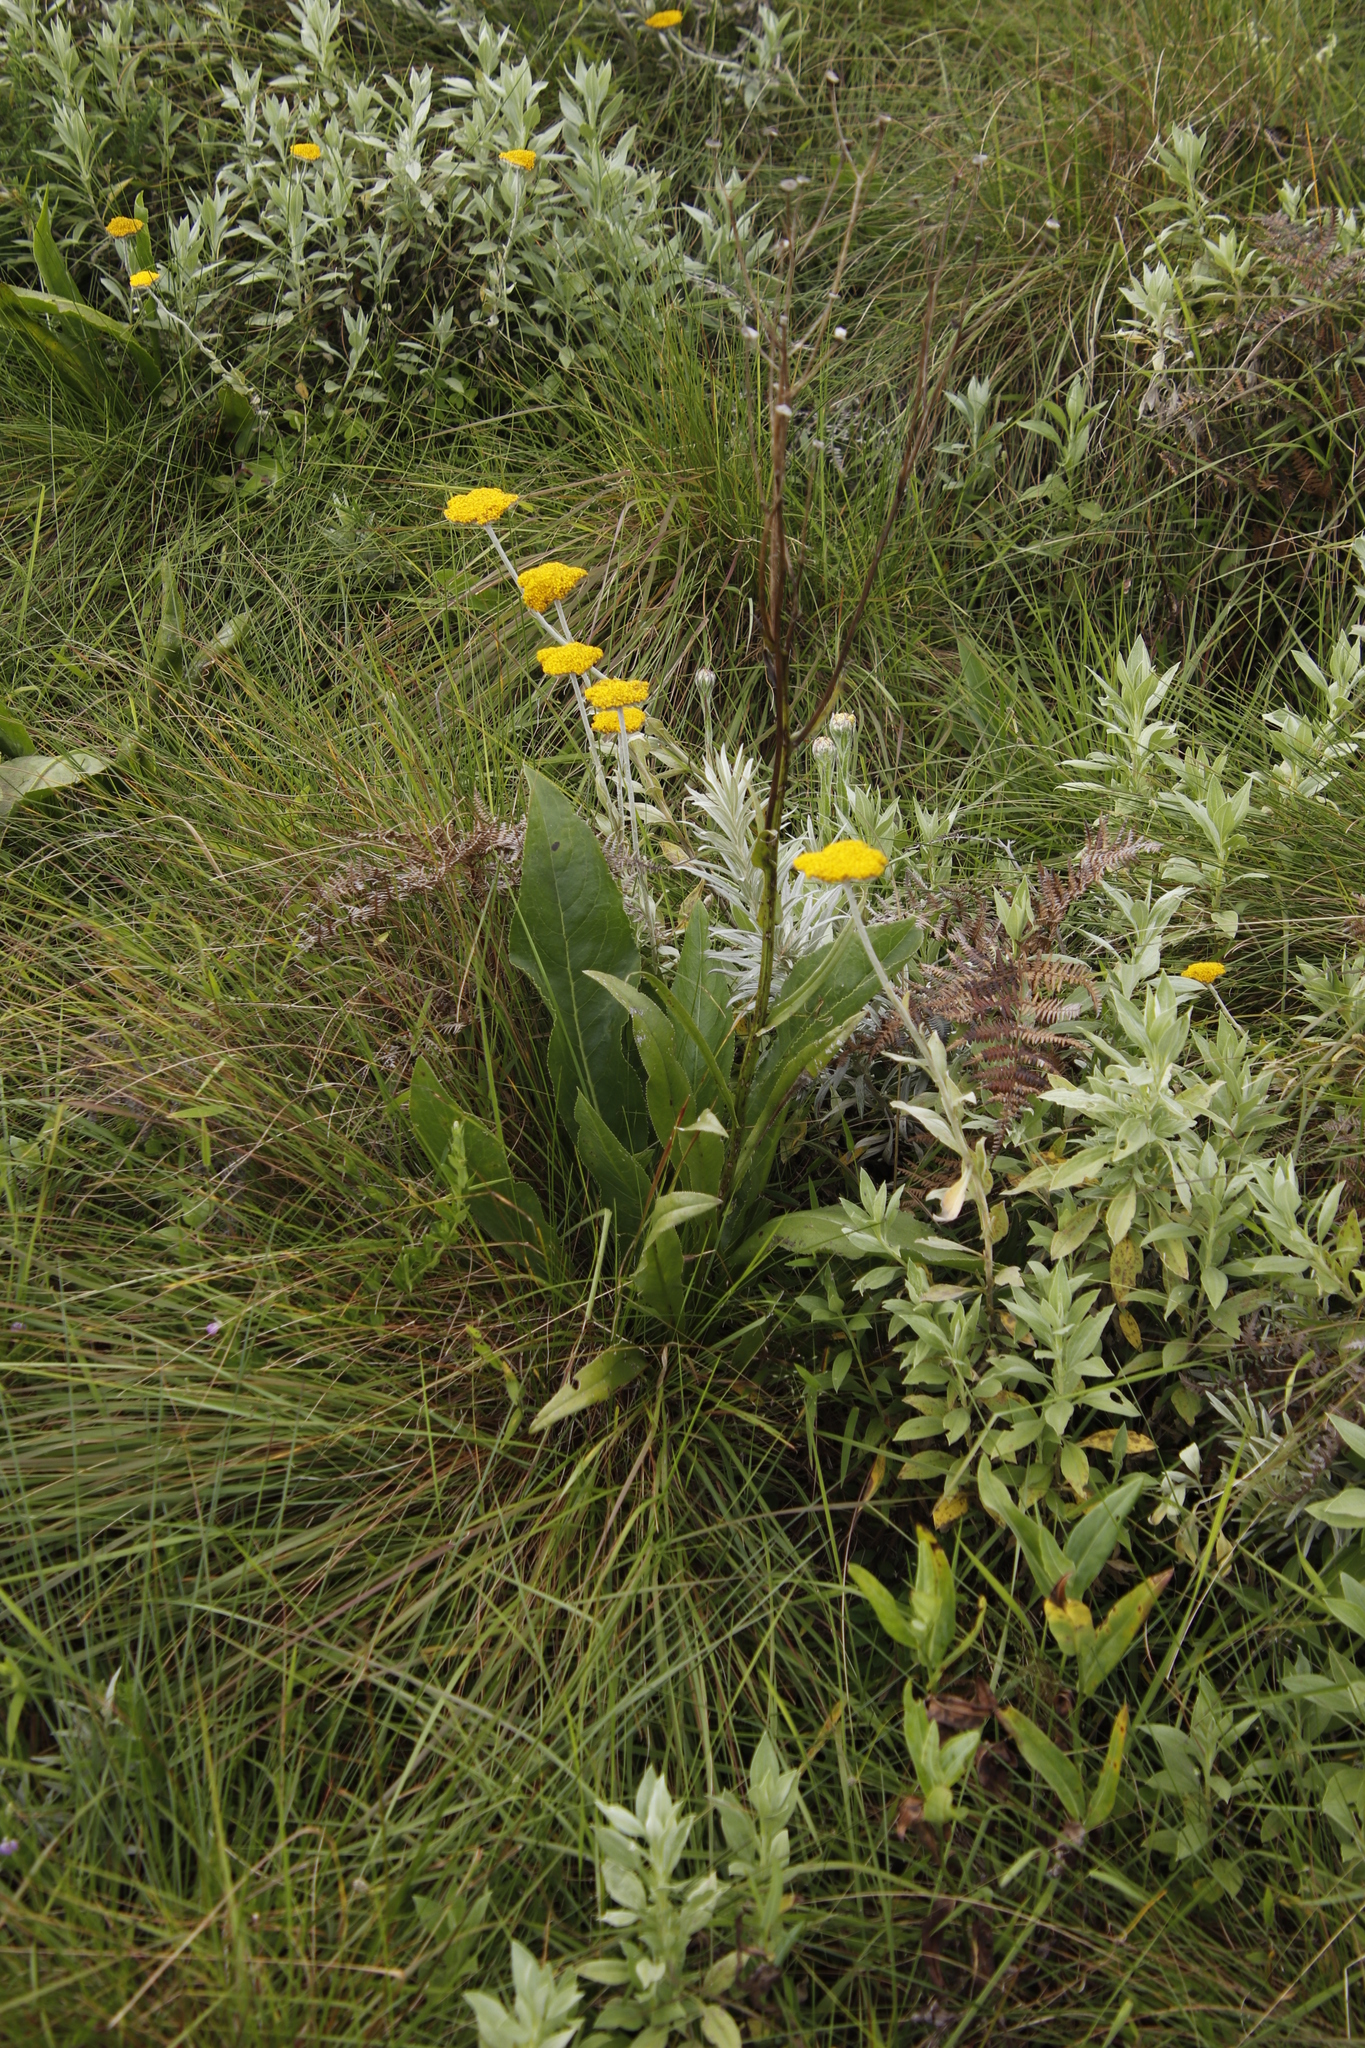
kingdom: Plantae
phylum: Tracheophyta
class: Magnoliopsida
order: Asterales
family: Asteraceae
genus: Helichrysum
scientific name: Helichrysum odoratissimum
